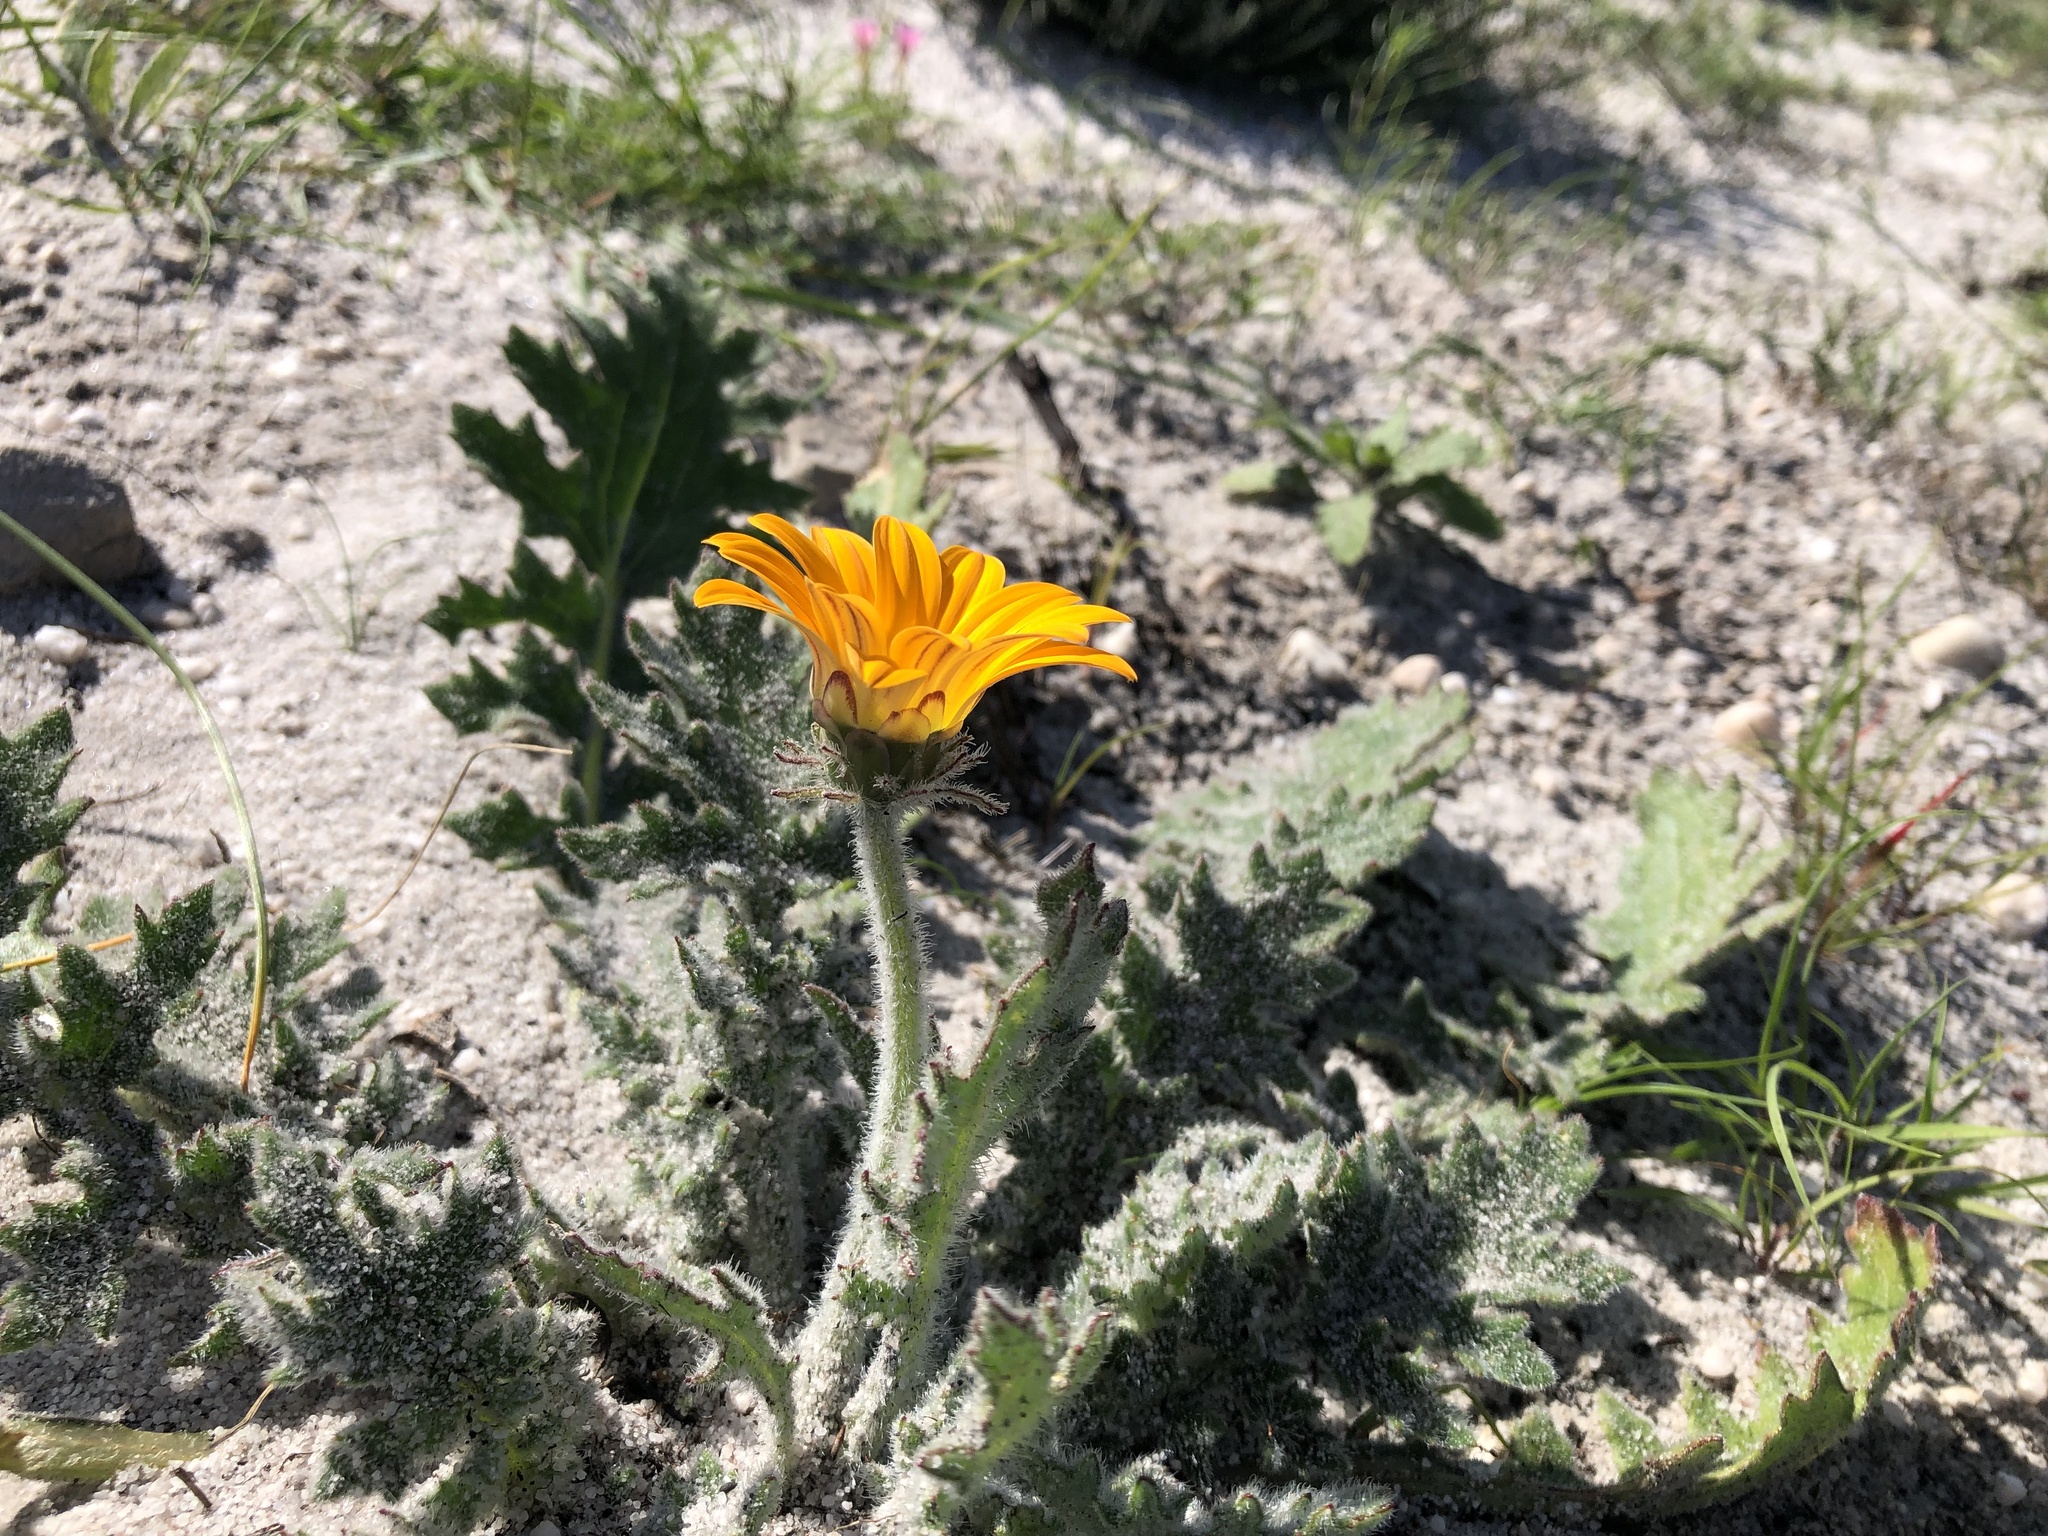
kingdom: Plantae
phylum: Tracheophyta
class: Magnoliopsida
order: Asterales
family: Asteraceae
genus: Arctotis
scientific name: Arctotis breviscapa
